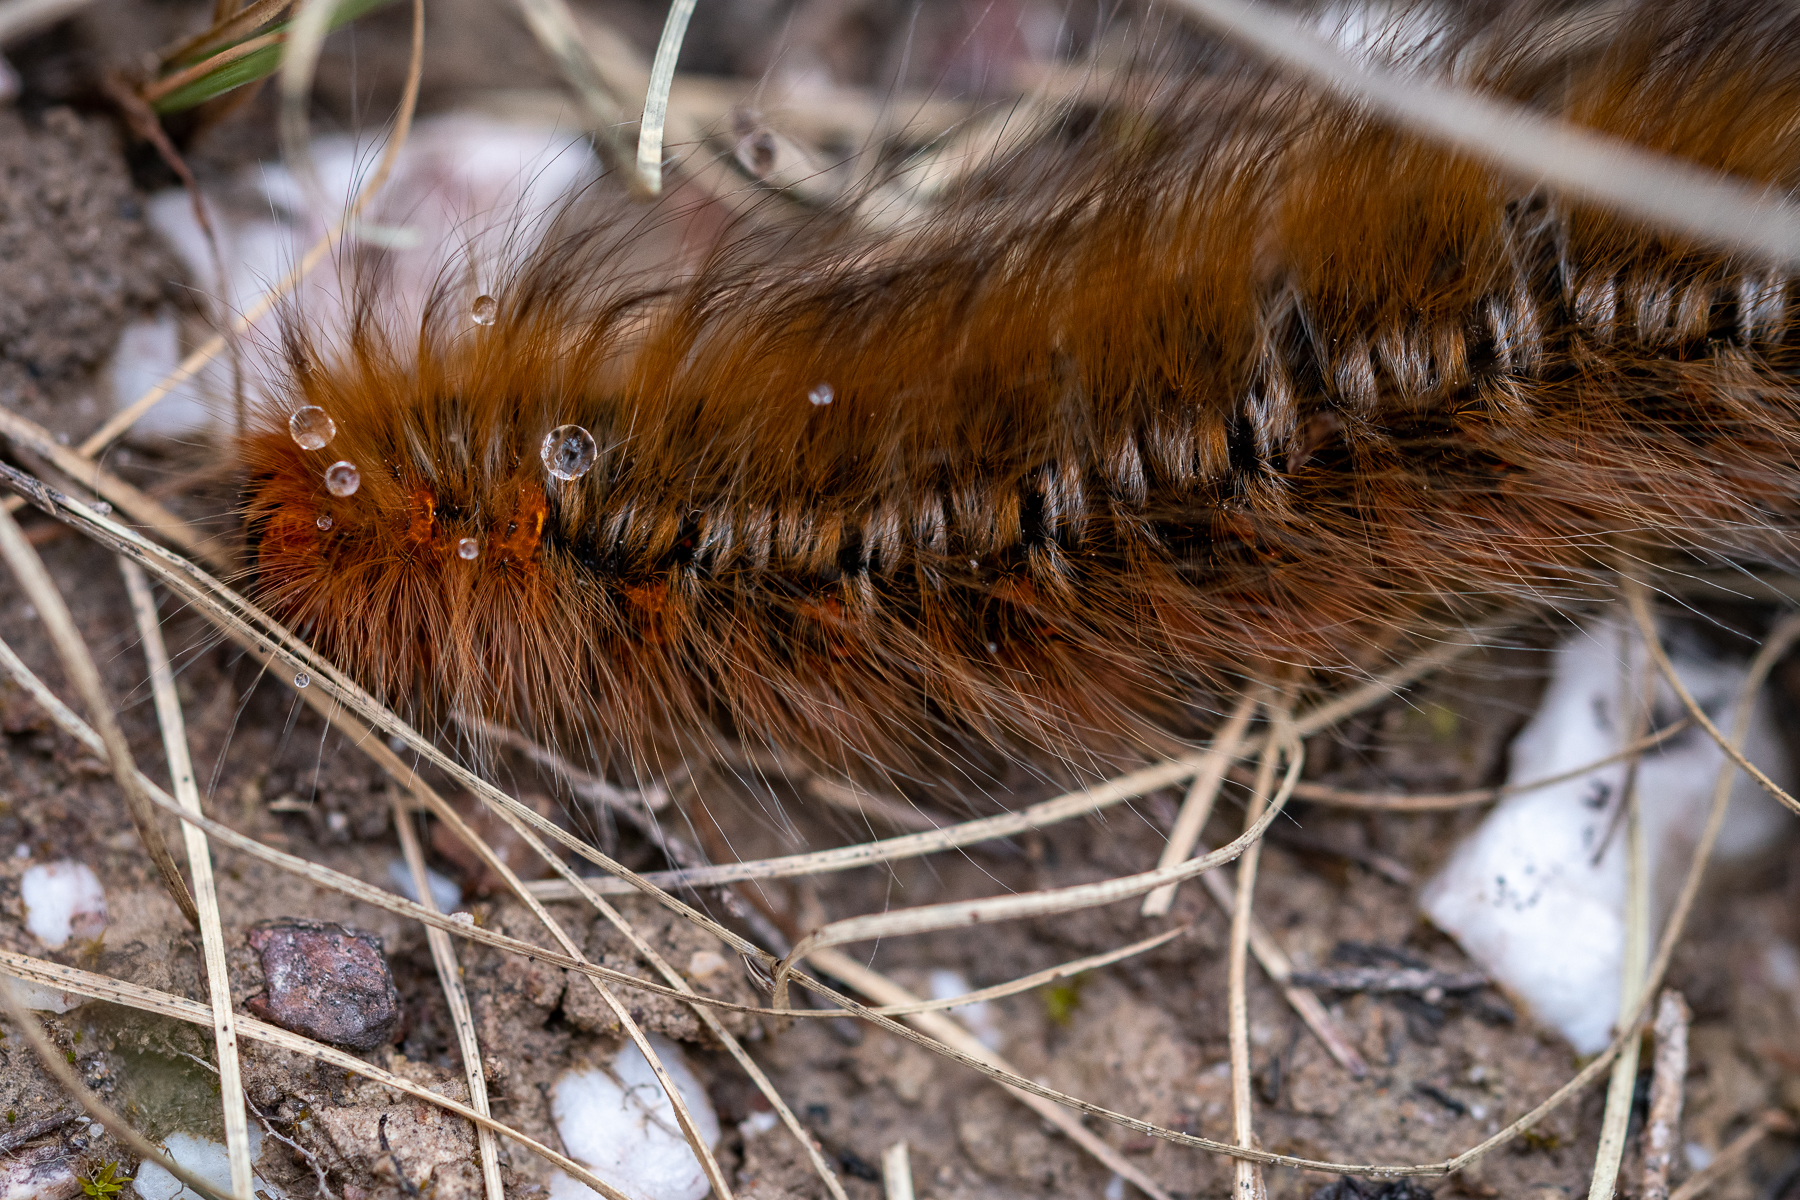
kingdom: Animalia
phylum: Arthropoda
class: Insecta
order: Lepidoptera
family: Lasiocampidae
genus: Mesocelis
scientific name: Mesocelis monticola
